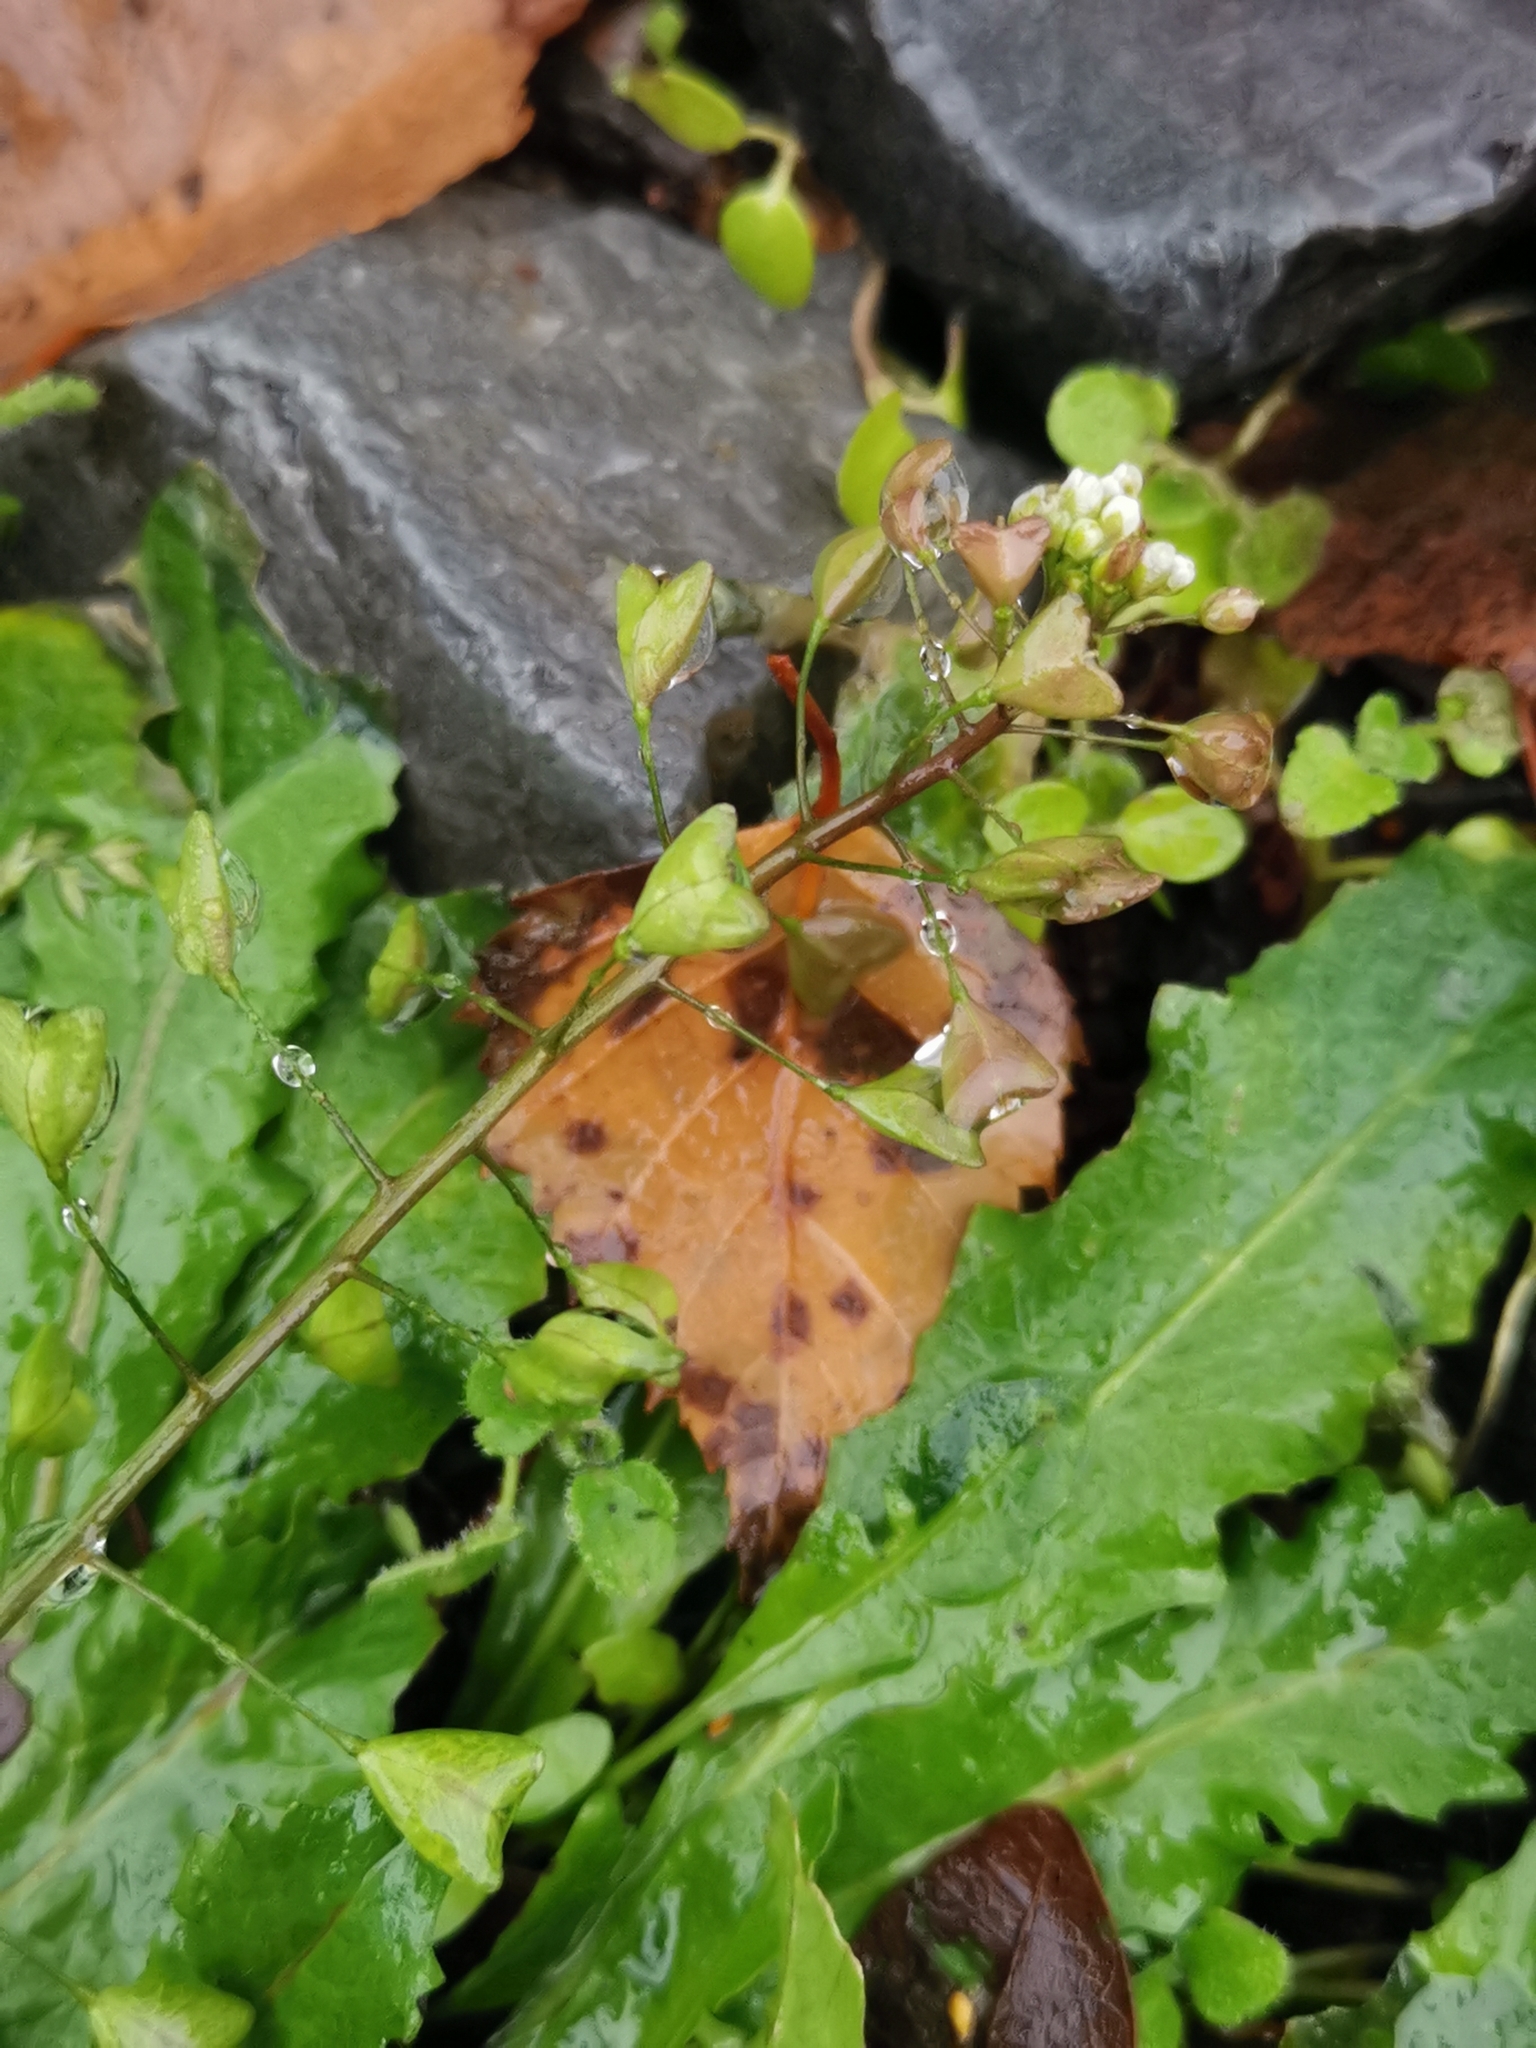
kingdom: Plantae
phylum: Tracheophyta
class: Magnoliopsida
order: Brassicales
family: Brassicaceae
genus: Capsella
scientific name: Capsella bursa-pastoris
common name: Shepherd's purse
